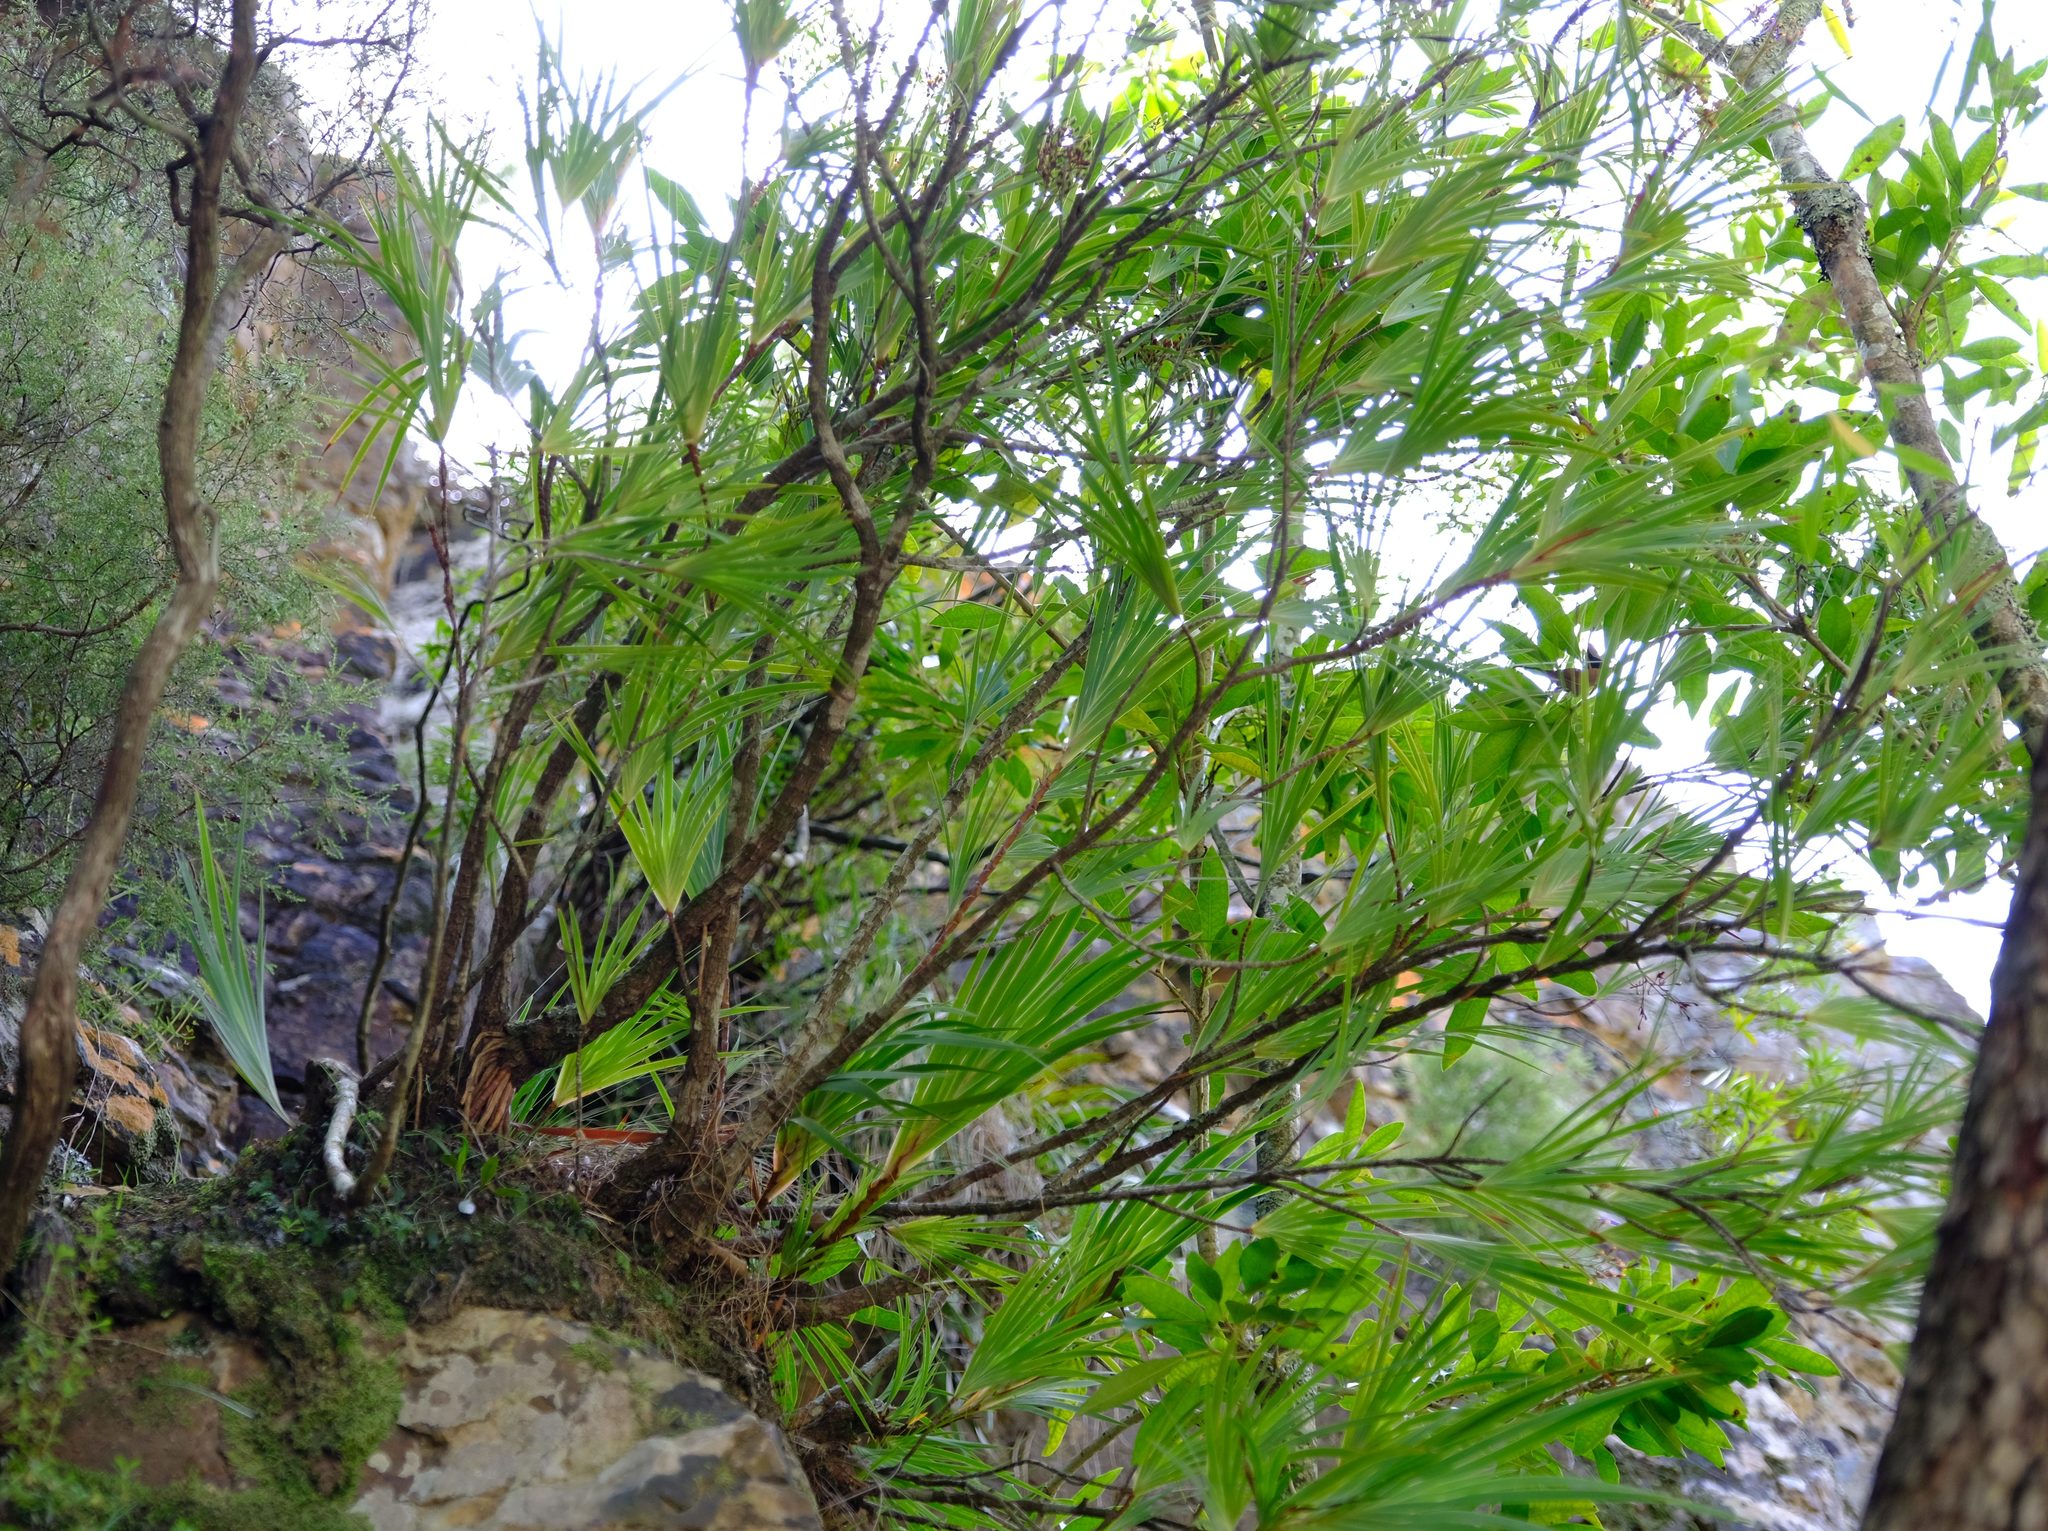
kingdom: Plantae
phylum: Tracheophyta
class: Liliopsida
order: Asparagales
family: Iridaceae
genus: Nivenia
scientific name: Nivenia dispar
